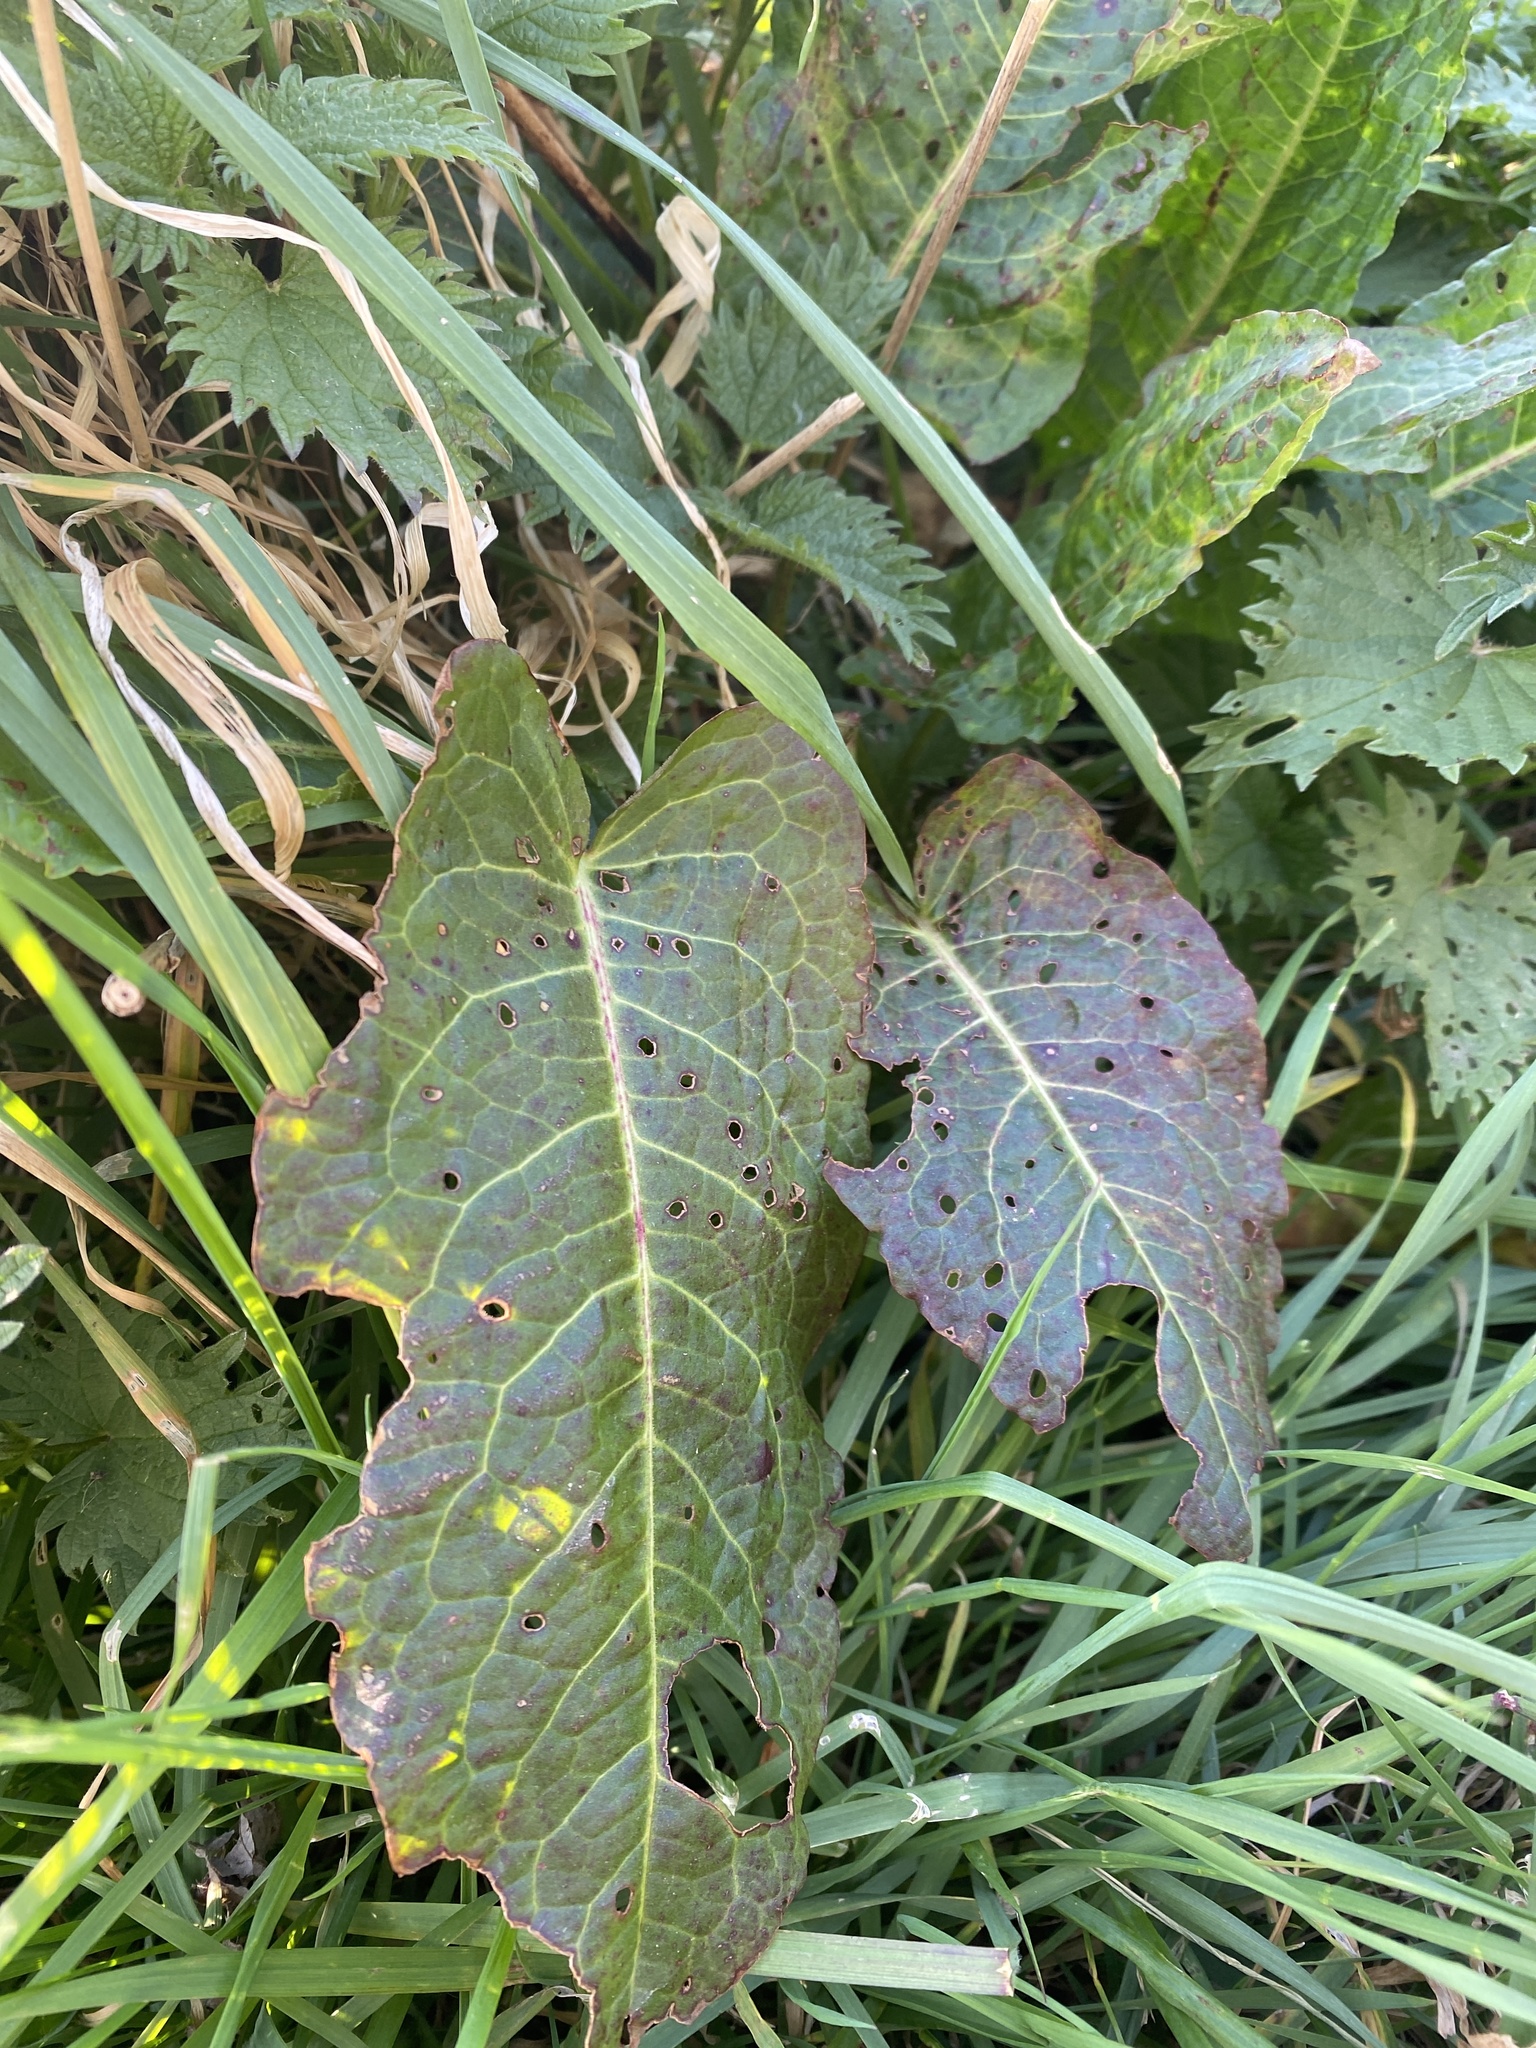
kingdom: Plantae
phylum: Tracheophyta
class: Magnoliopsida
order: Caryophyllales
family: Polygonaceae
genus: Rumex
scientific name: Rumex obtusifolius
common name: Bitter dock
